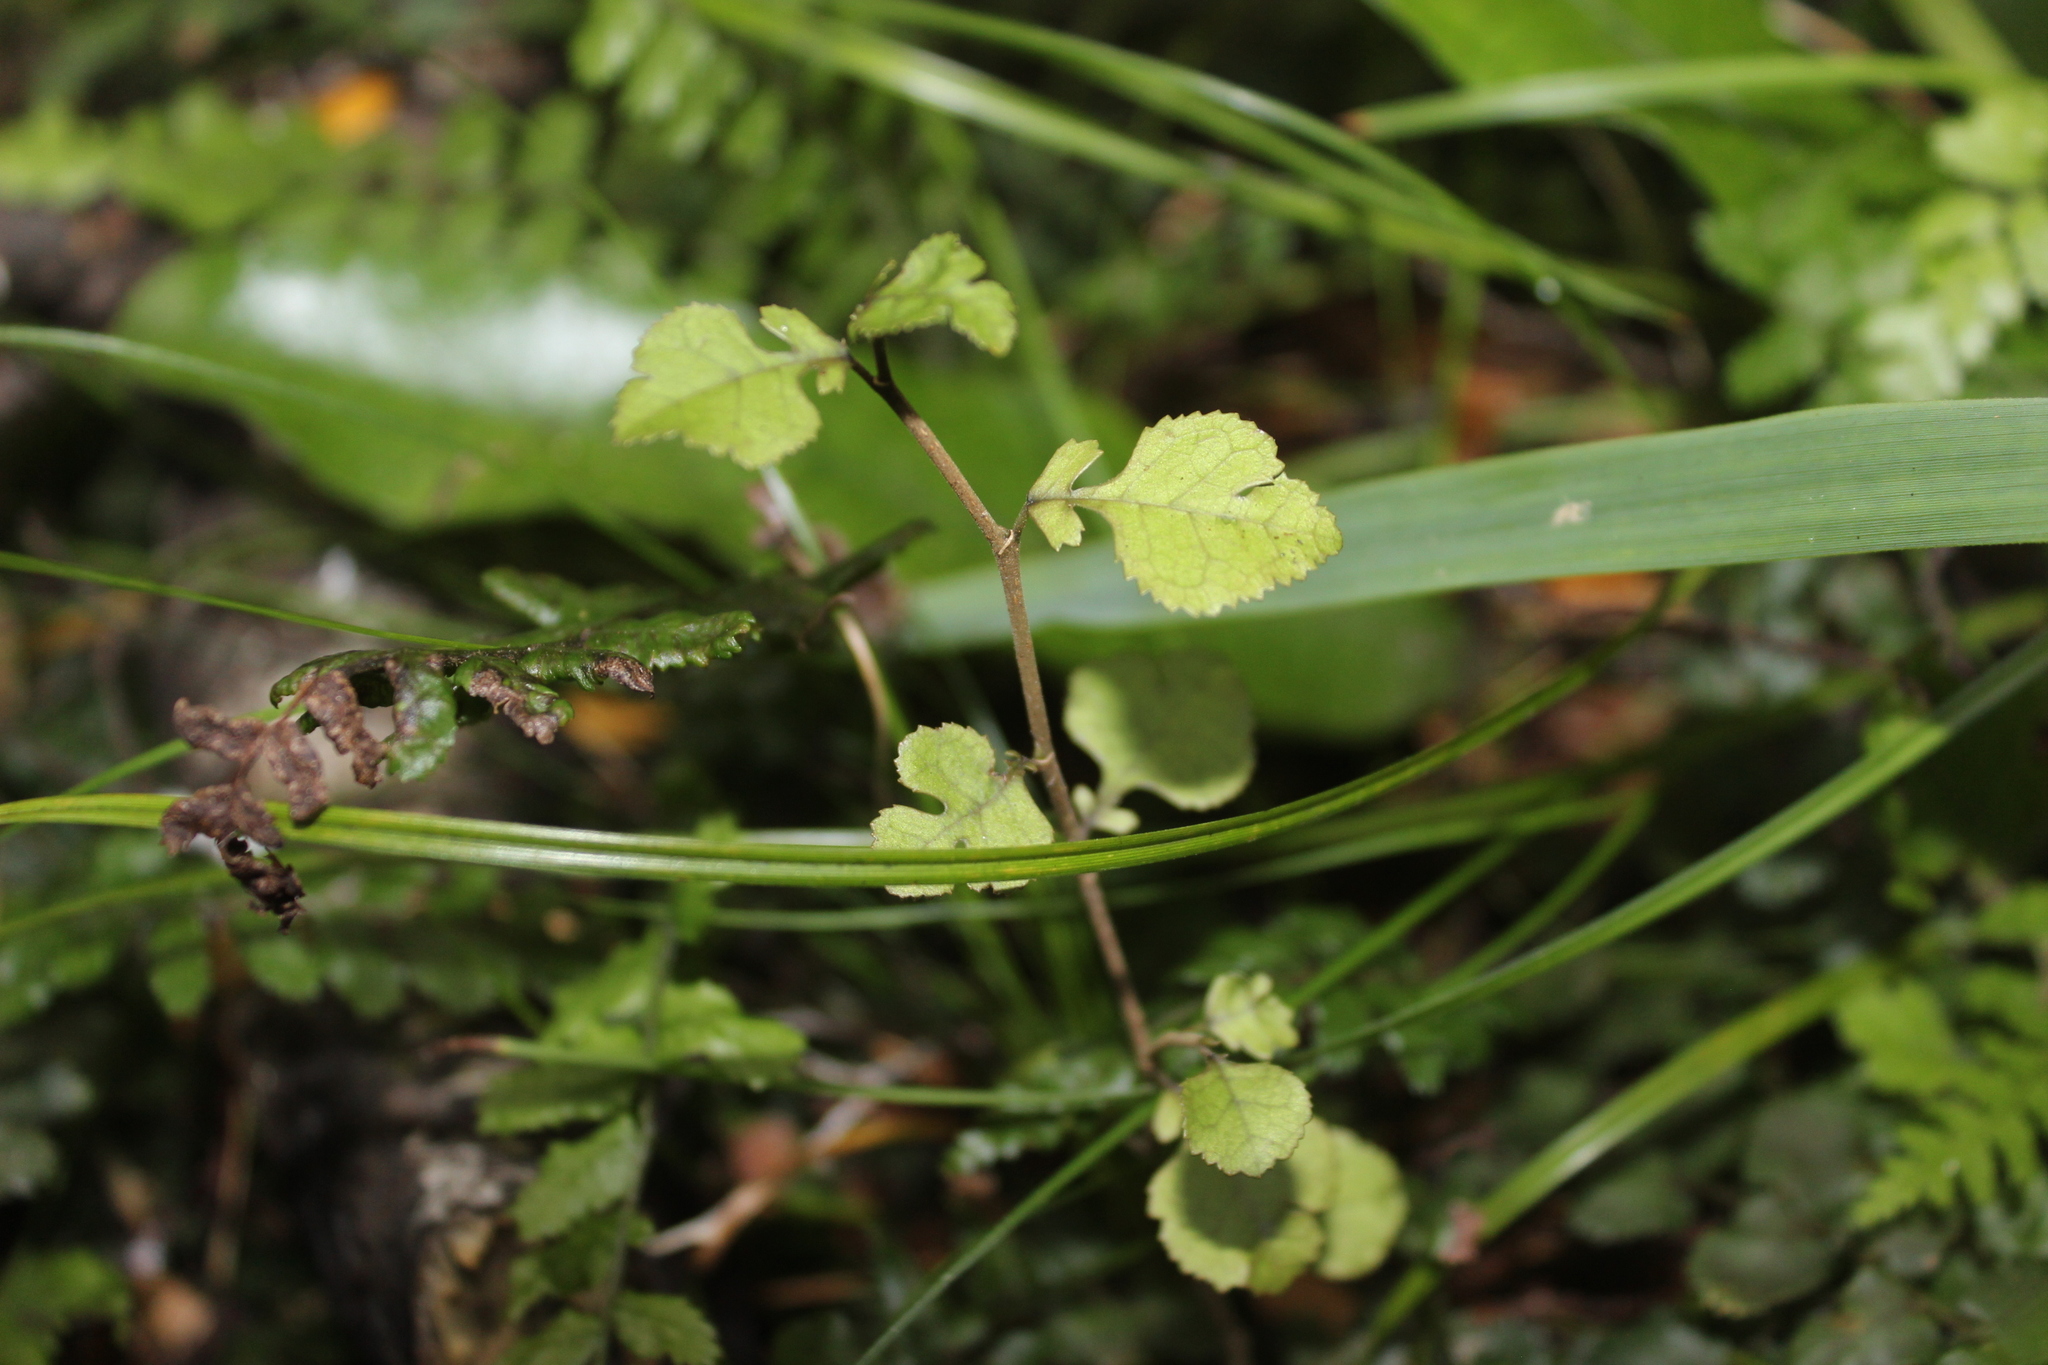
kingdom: Plantae
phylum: Tracheophyta
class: Magnoliopsida
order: Rosales
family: Moraceae
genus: Paratrophis
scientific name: Paratrophis microphylla
